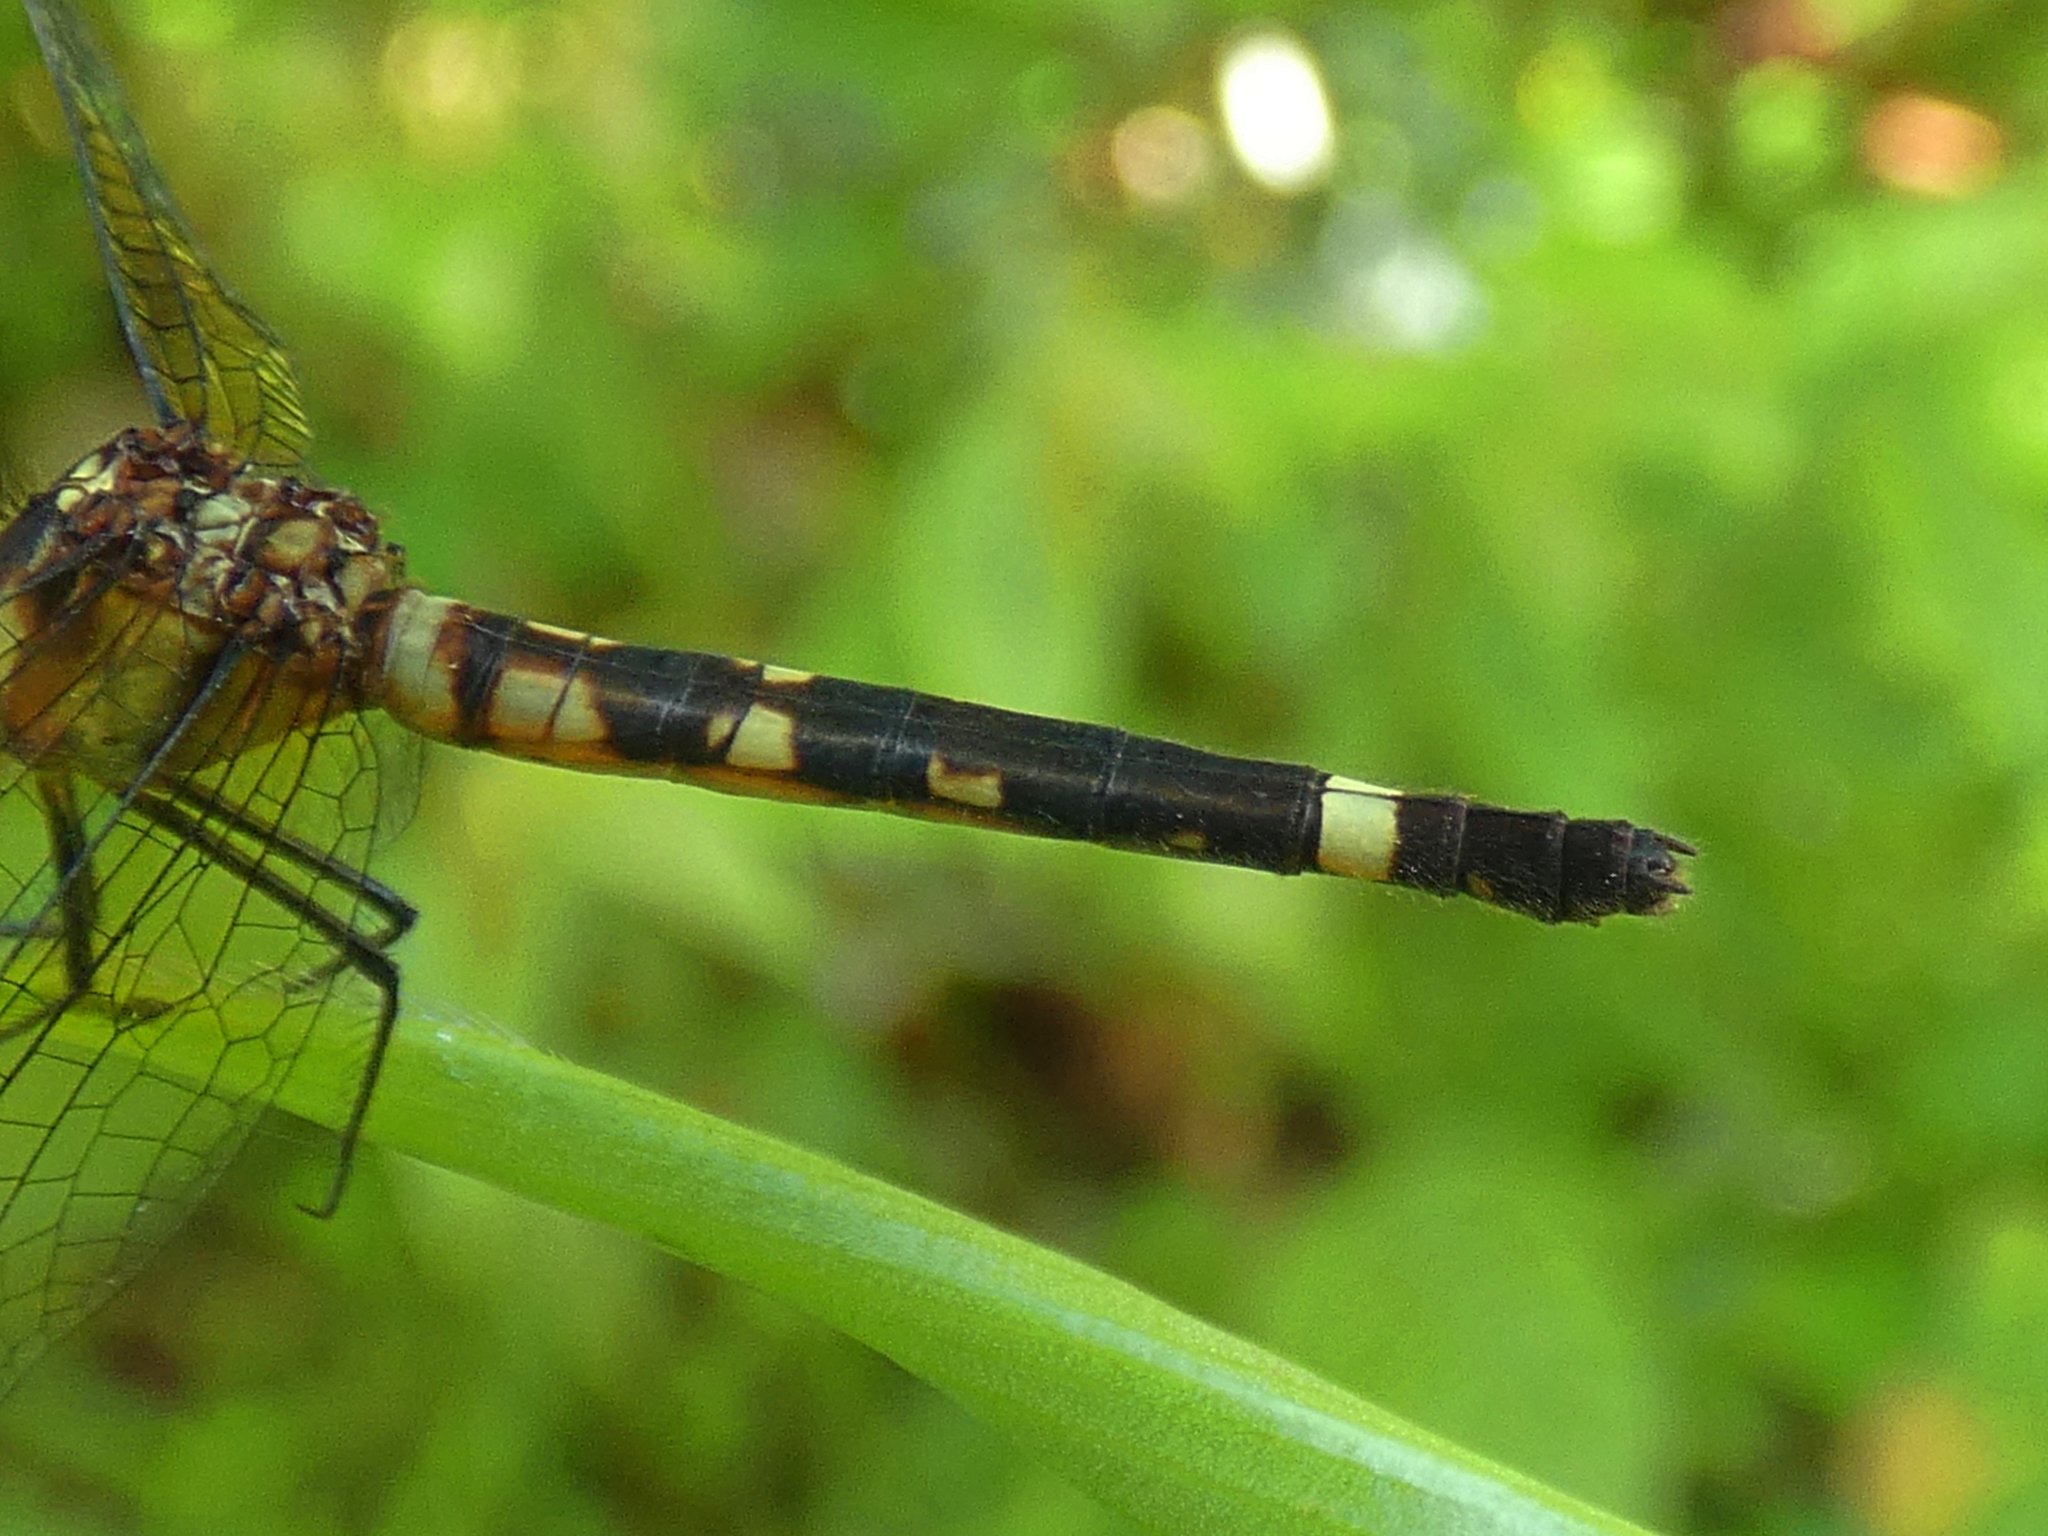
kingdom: Animalia
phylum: Arthropoda
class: Insecta
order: Odonata
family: Libellulidae
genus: Tetrathemis
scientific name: Tetrathemis irregularis
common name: Elf
